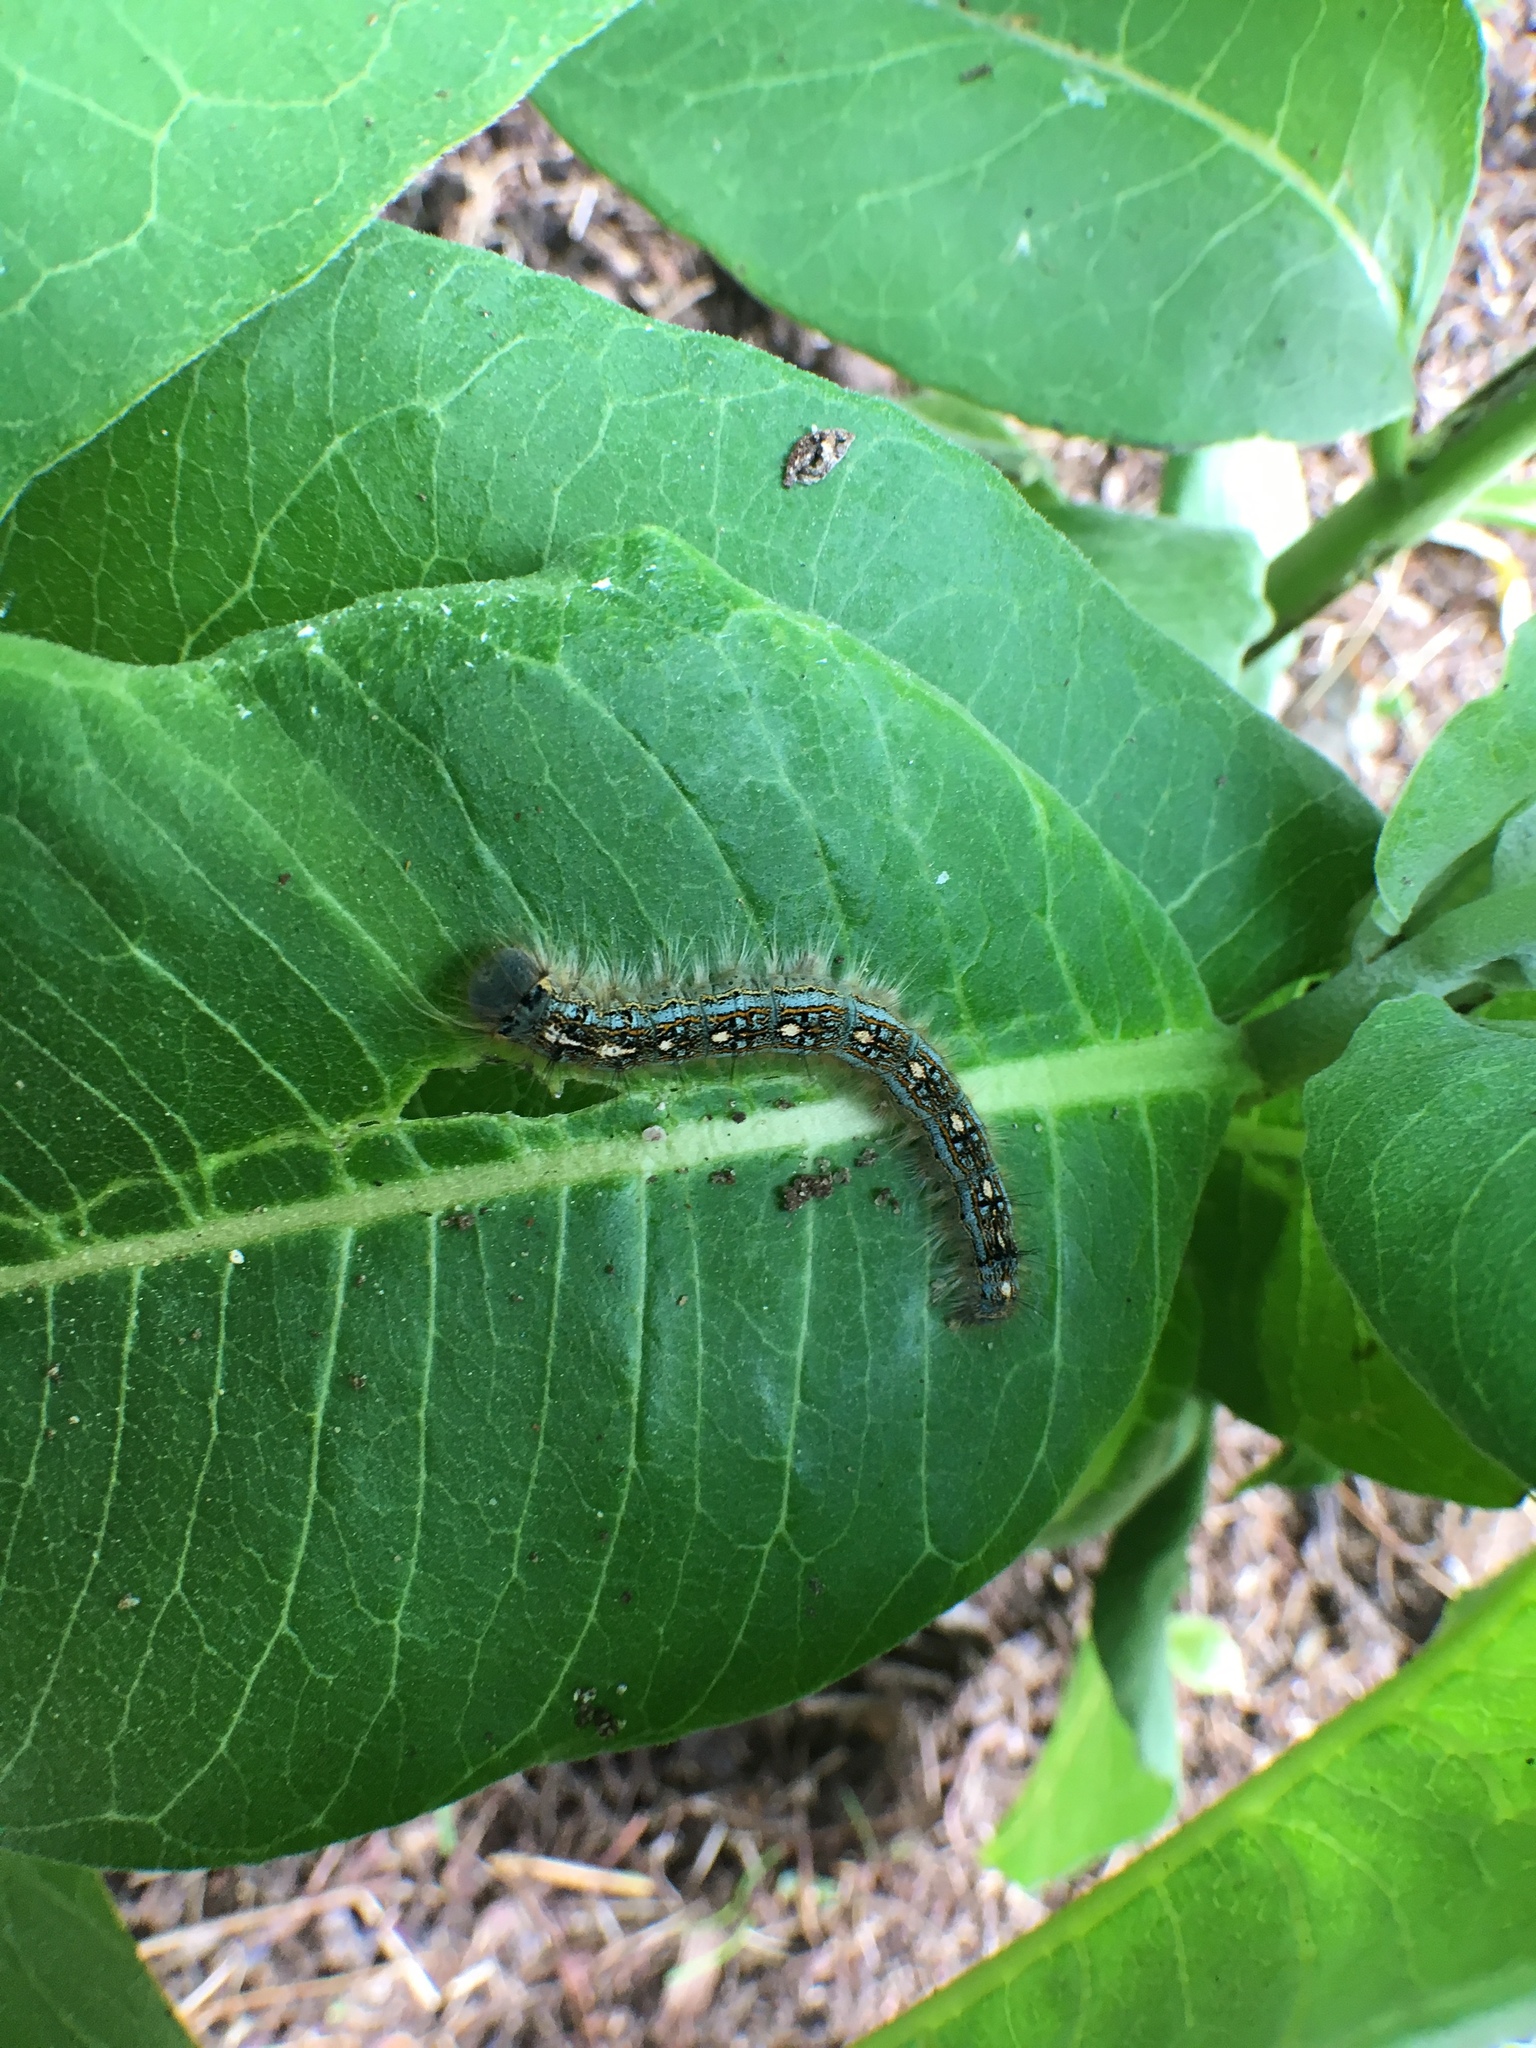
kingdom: Animalia
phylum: Arthropoda
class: Insecta
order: Lepidoptera
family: Lasiocampidae
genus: Malacosoma
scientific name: Malacosoma disstria
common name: Forest tent caterpillar
